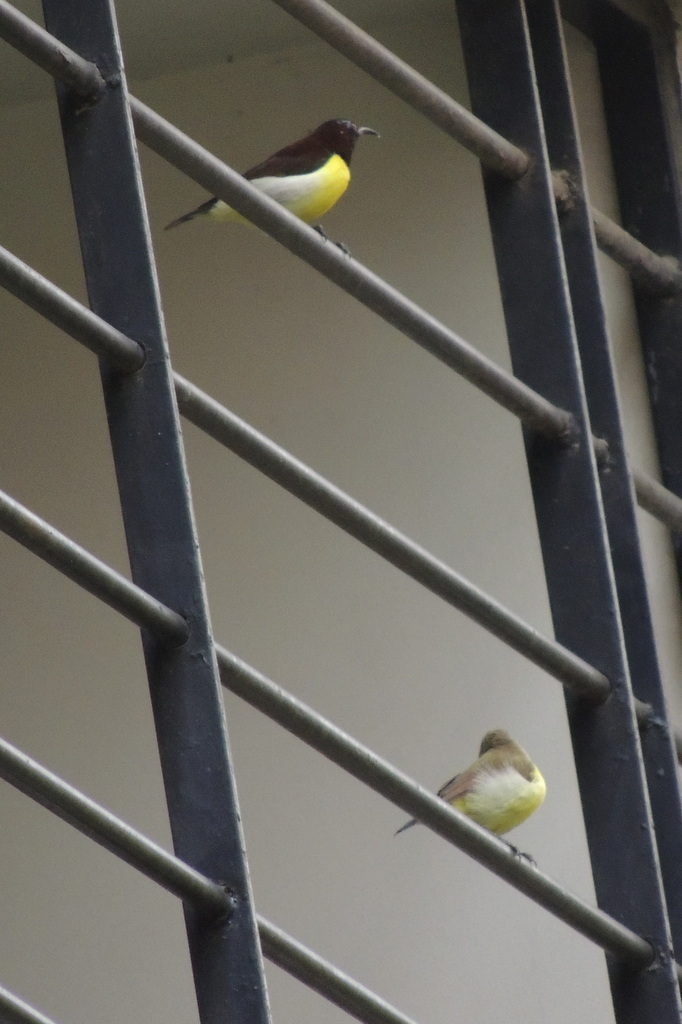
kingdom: Animalia
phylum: Chordata
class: Aves
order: Passeriformes
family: Nectariniidae
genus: Leptocoma
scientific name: Leptocoma zeylonica
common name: Purple-rumped sunbird
